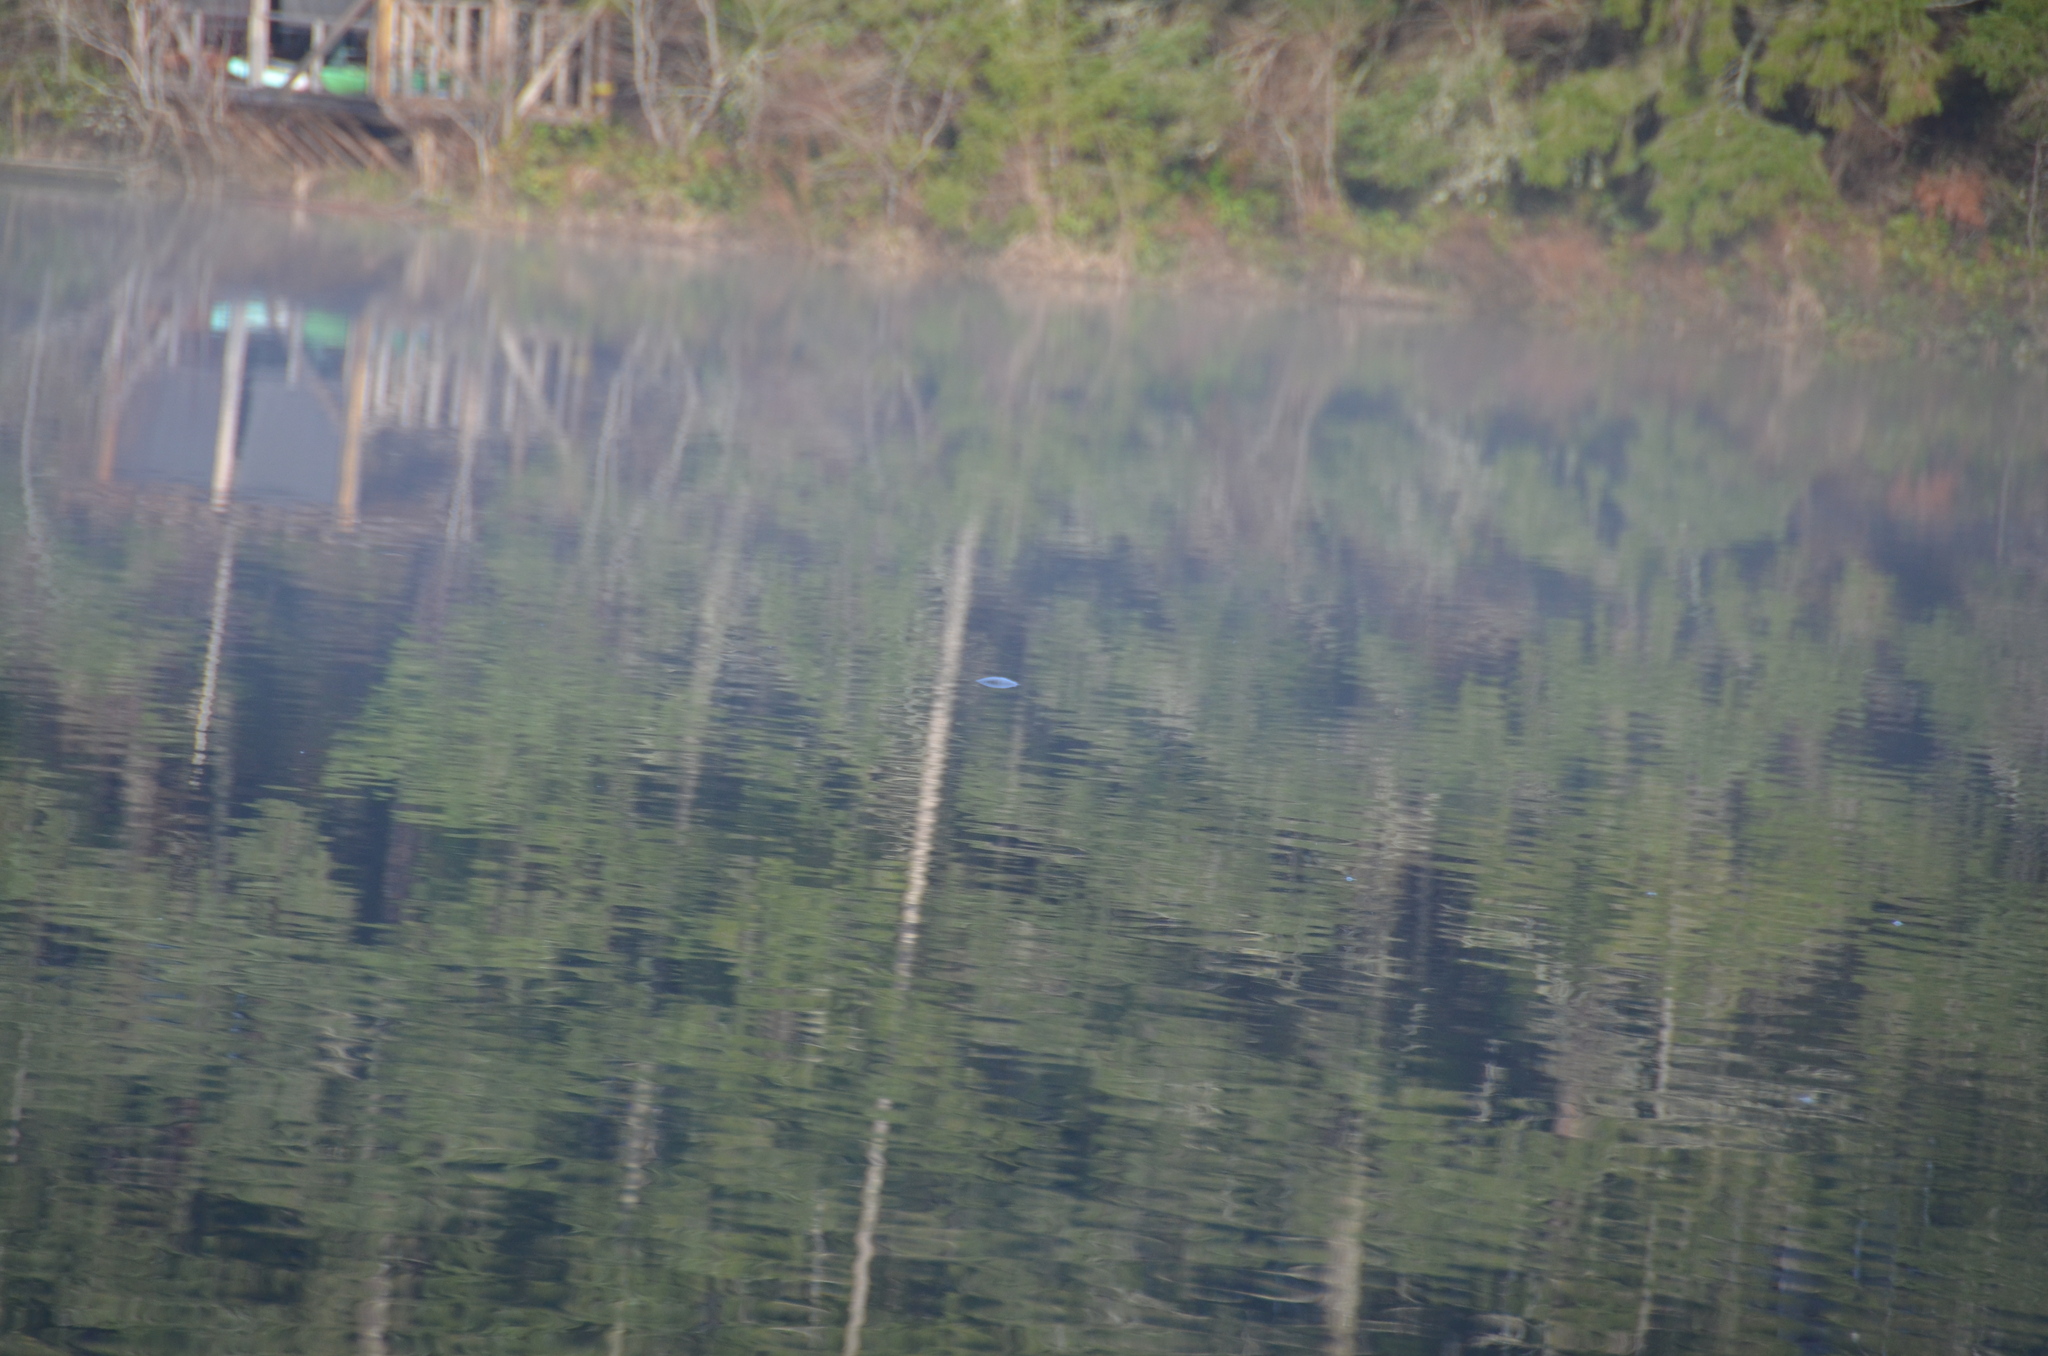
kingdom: Animalia
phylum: Chordata
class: Testudines
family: Emydidae
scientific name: Emydidae
